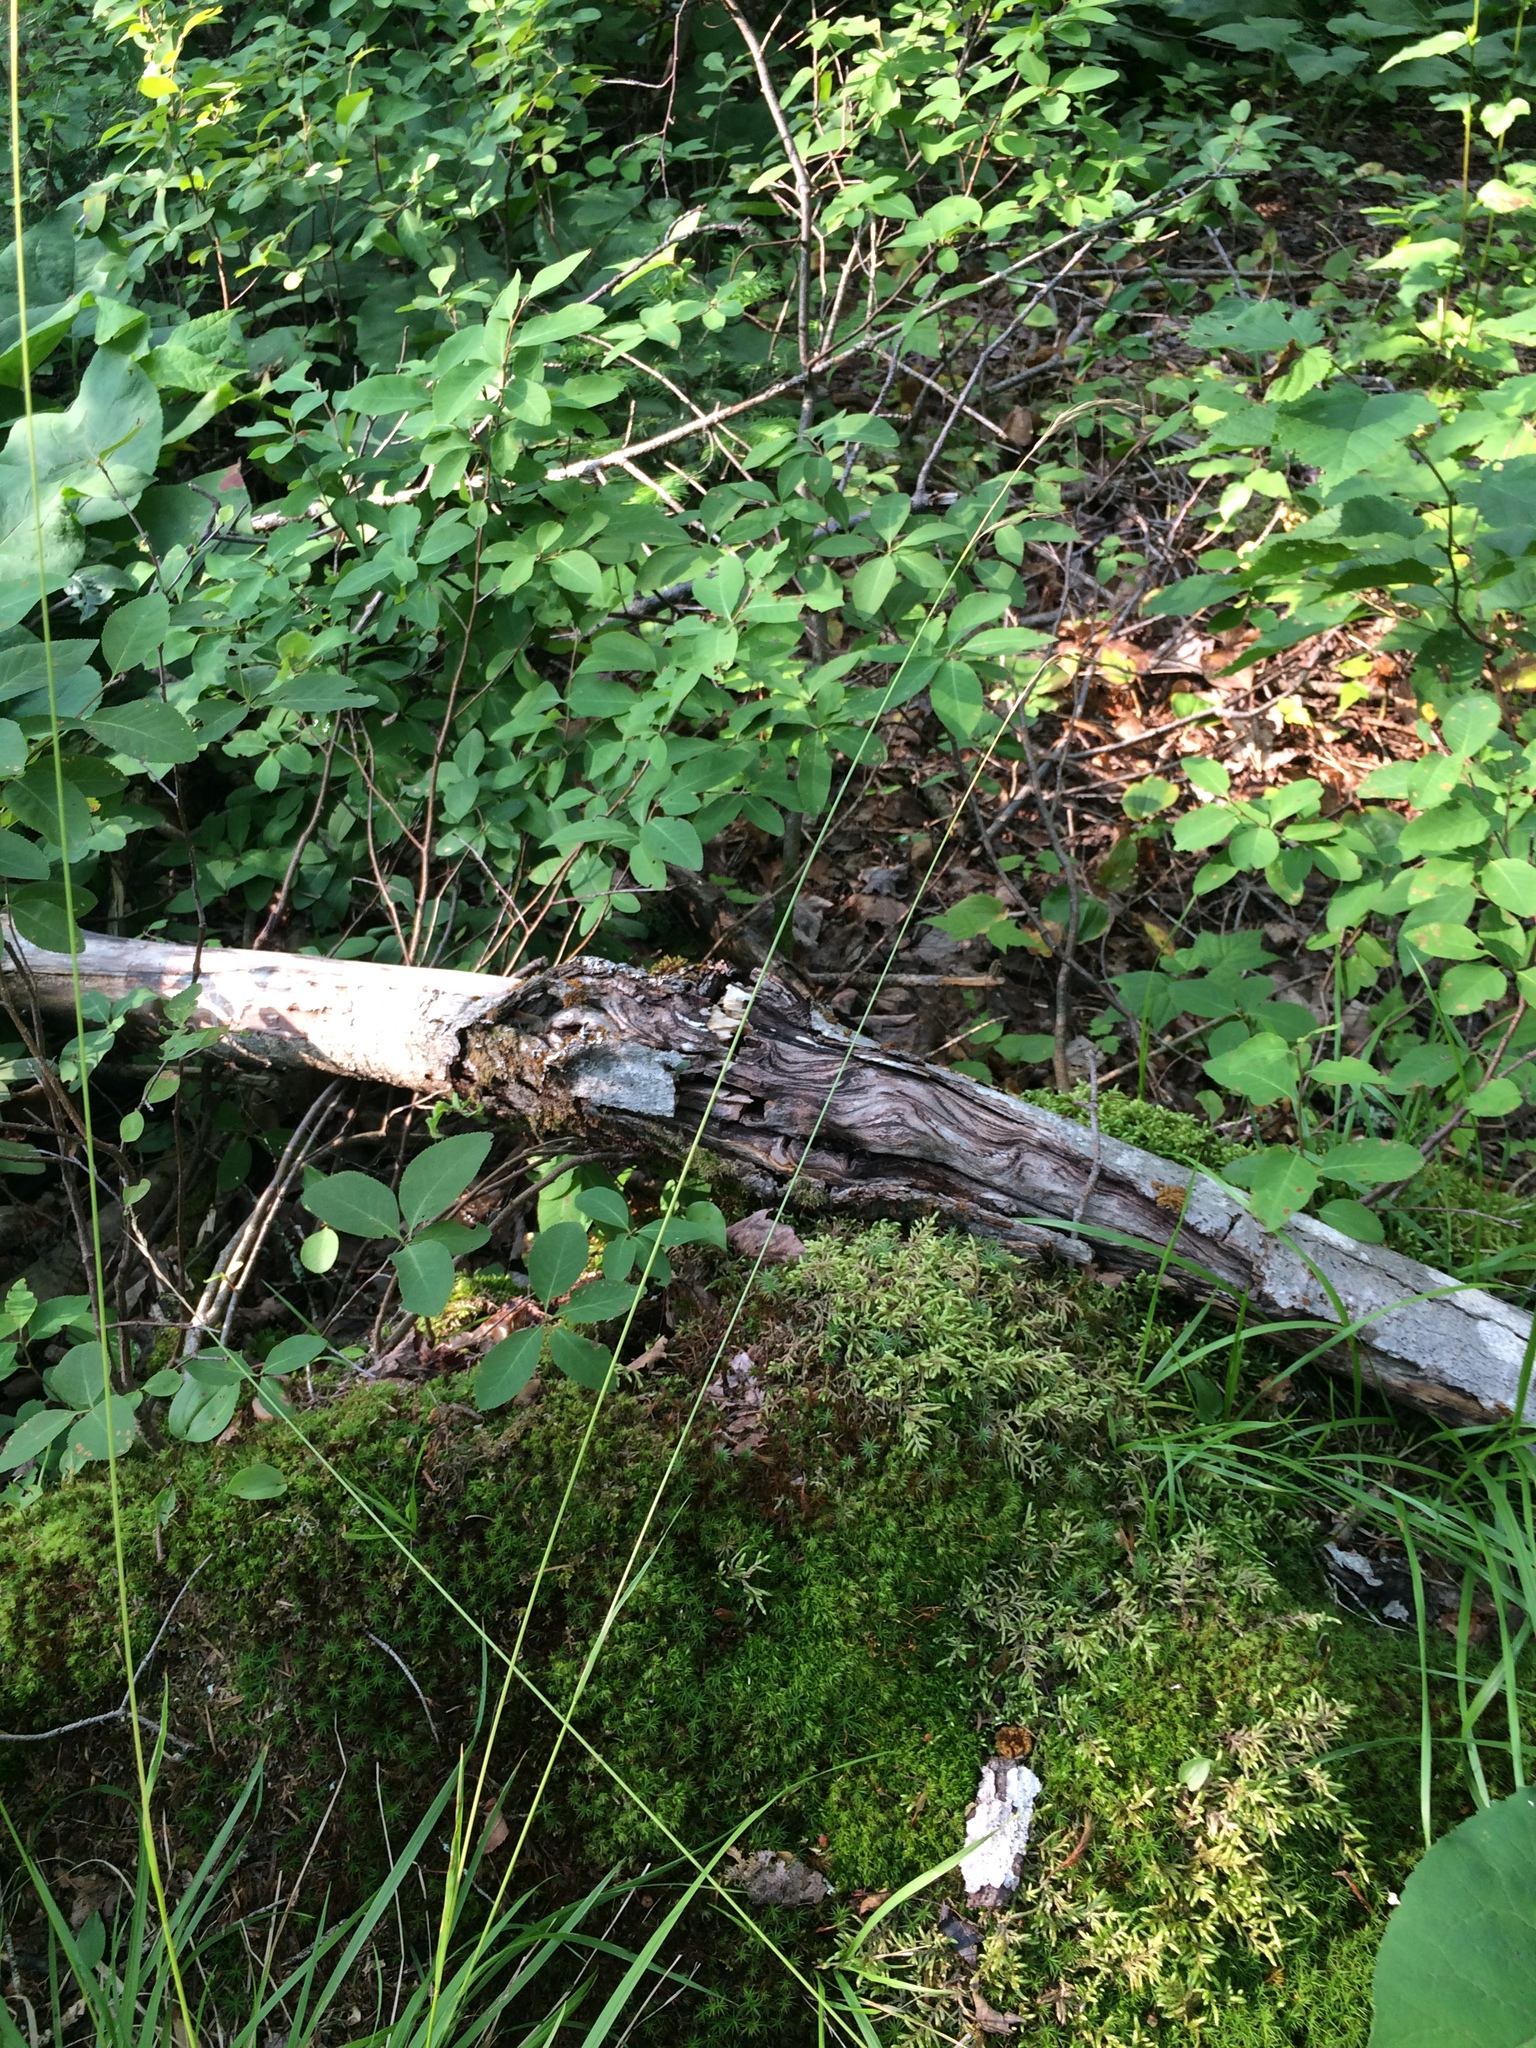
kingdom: Plantae
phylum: Tracheophyta
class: Liliopsida
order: Poales
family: Poaceae
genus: Schizachne
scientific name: Schizachne purpurascens
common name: False melic
